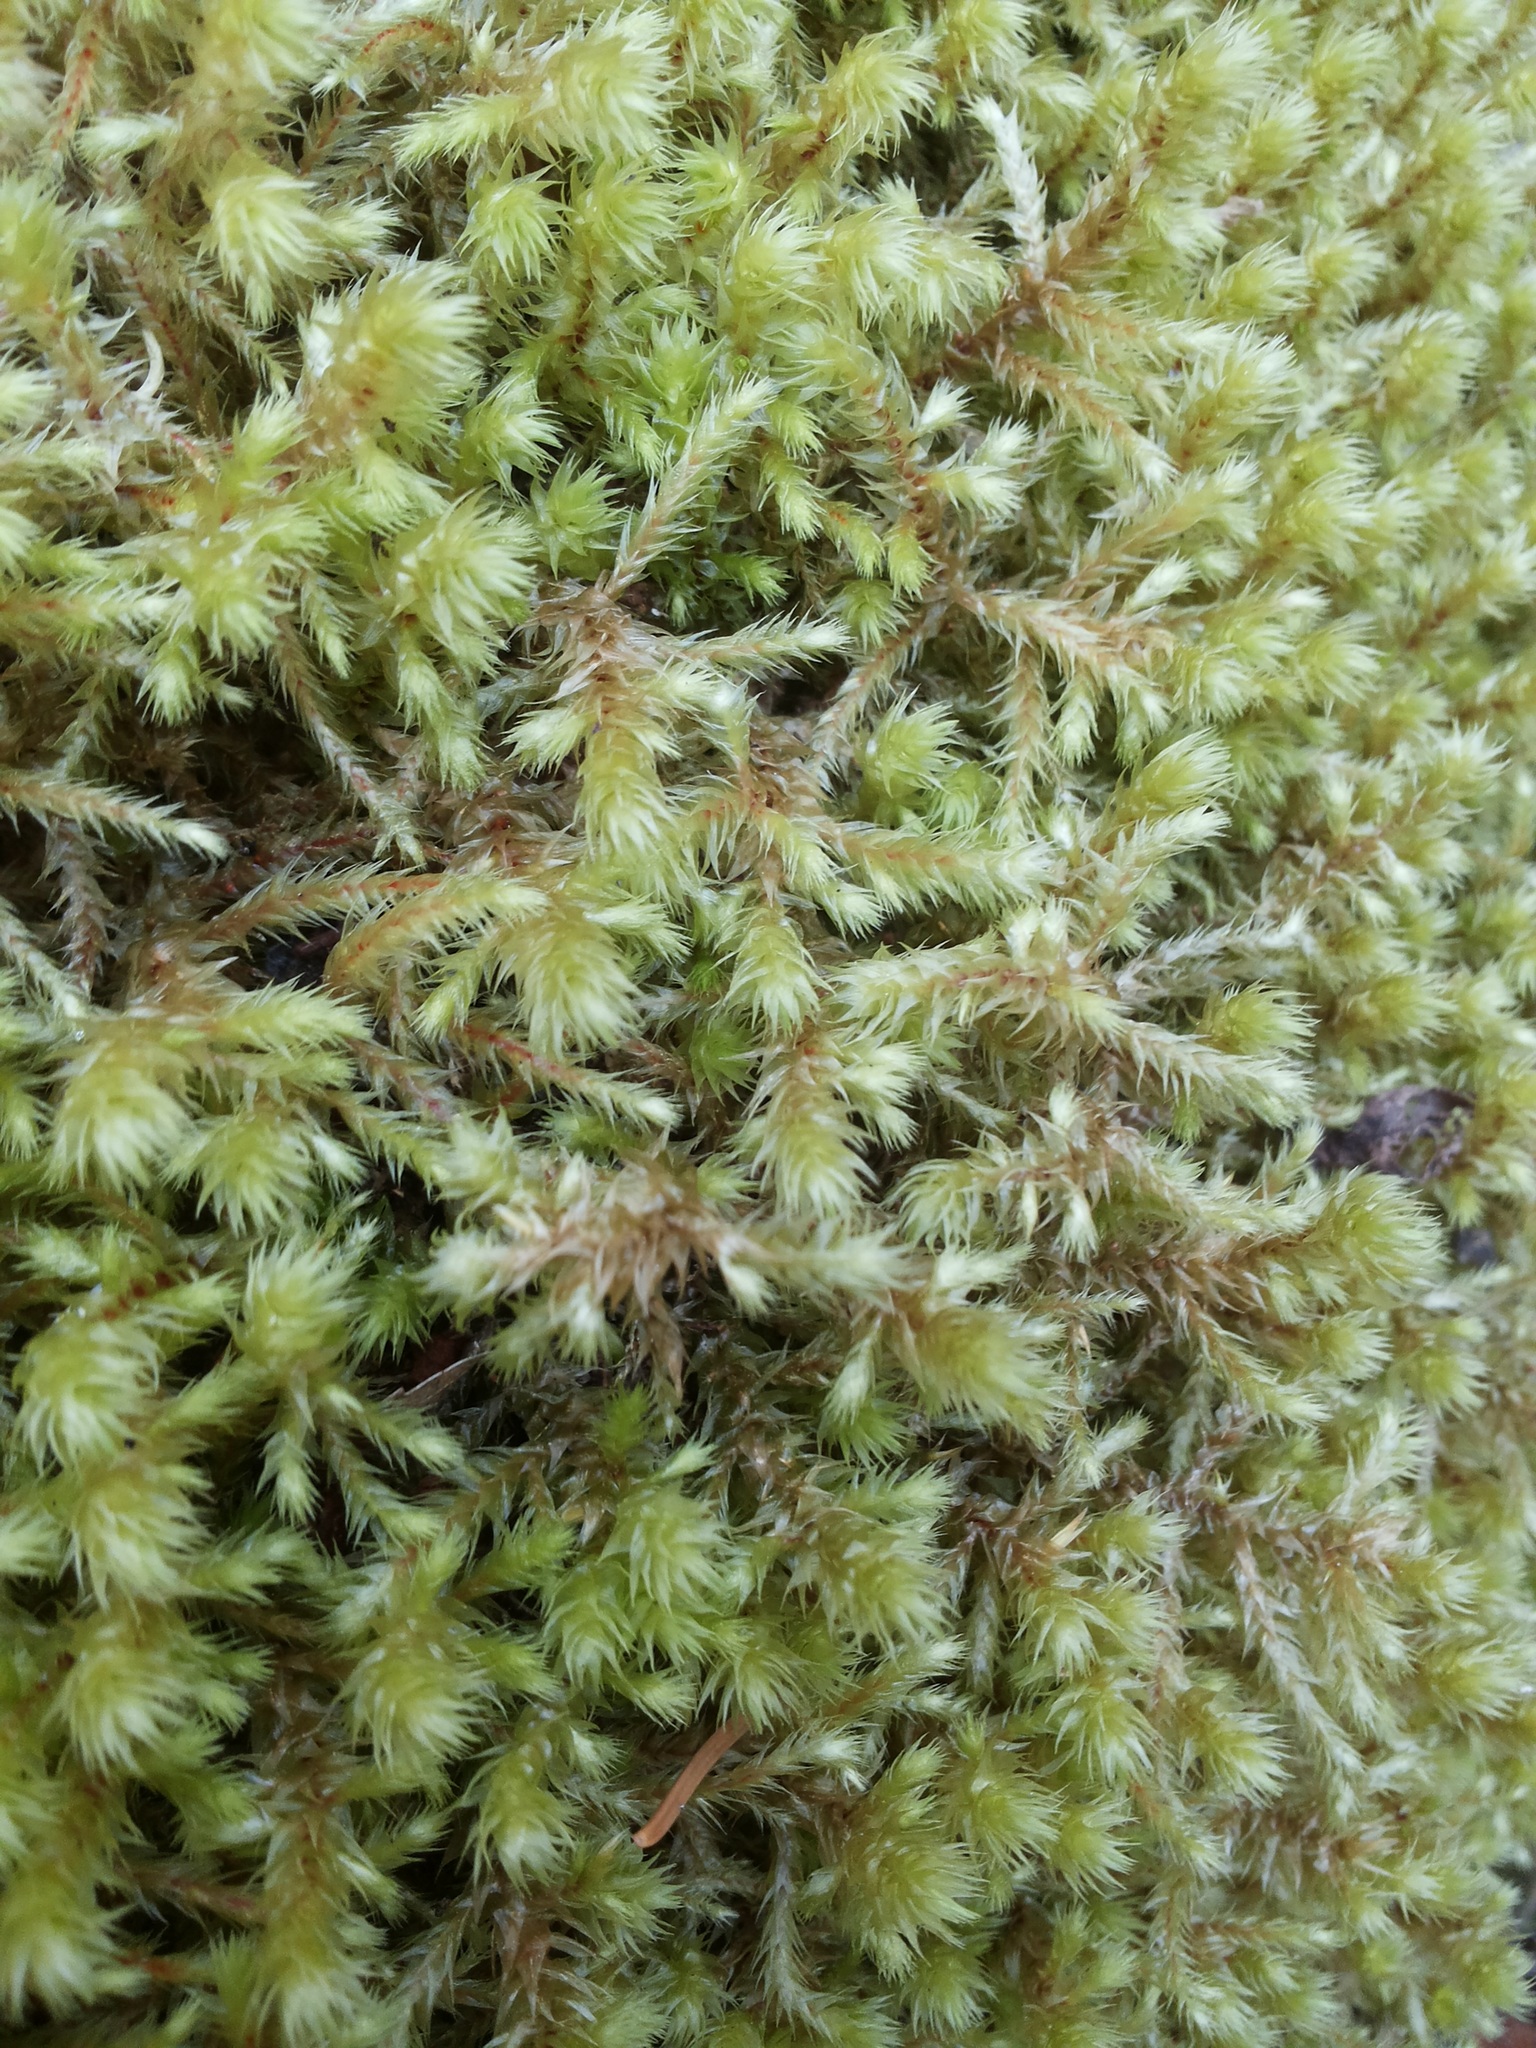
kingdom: Plantae
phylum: Bryophyta
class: Bryopsida
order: Hypnales
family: Hylocomiaceae
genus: Hylocomiadelphus
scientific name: Hylocomiadelphus triquetrus
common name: Rough goose neck moss
